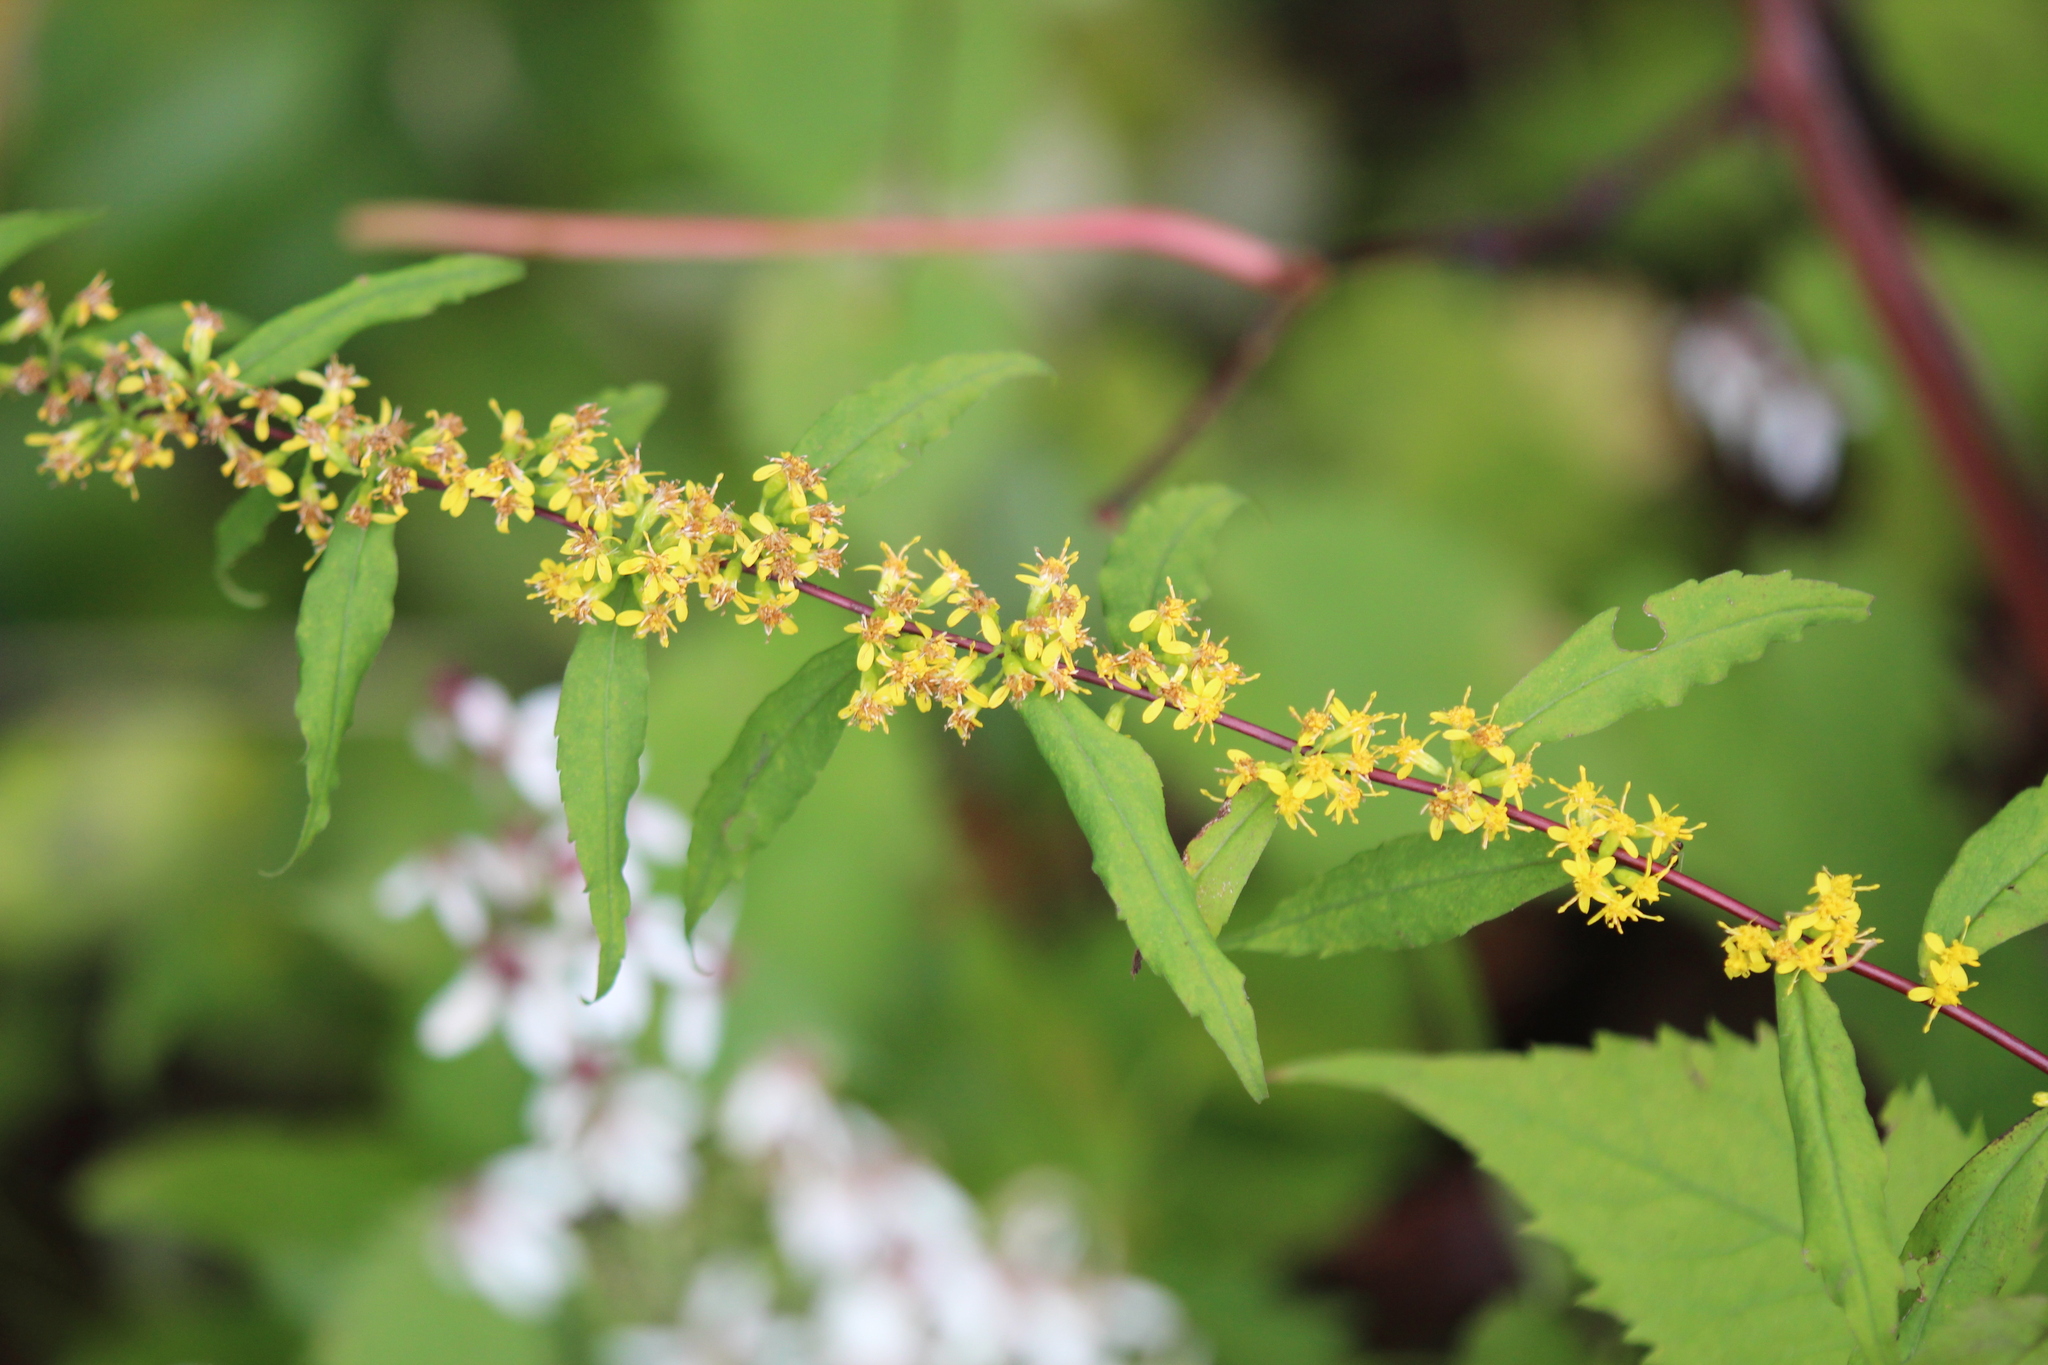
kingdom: Plantae
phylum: Tracheophyta
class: Magnoliopsida
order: Asterales
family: Asteraceae
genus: Solidago
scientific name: Solidago caesia
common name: Woodland goldenrod
